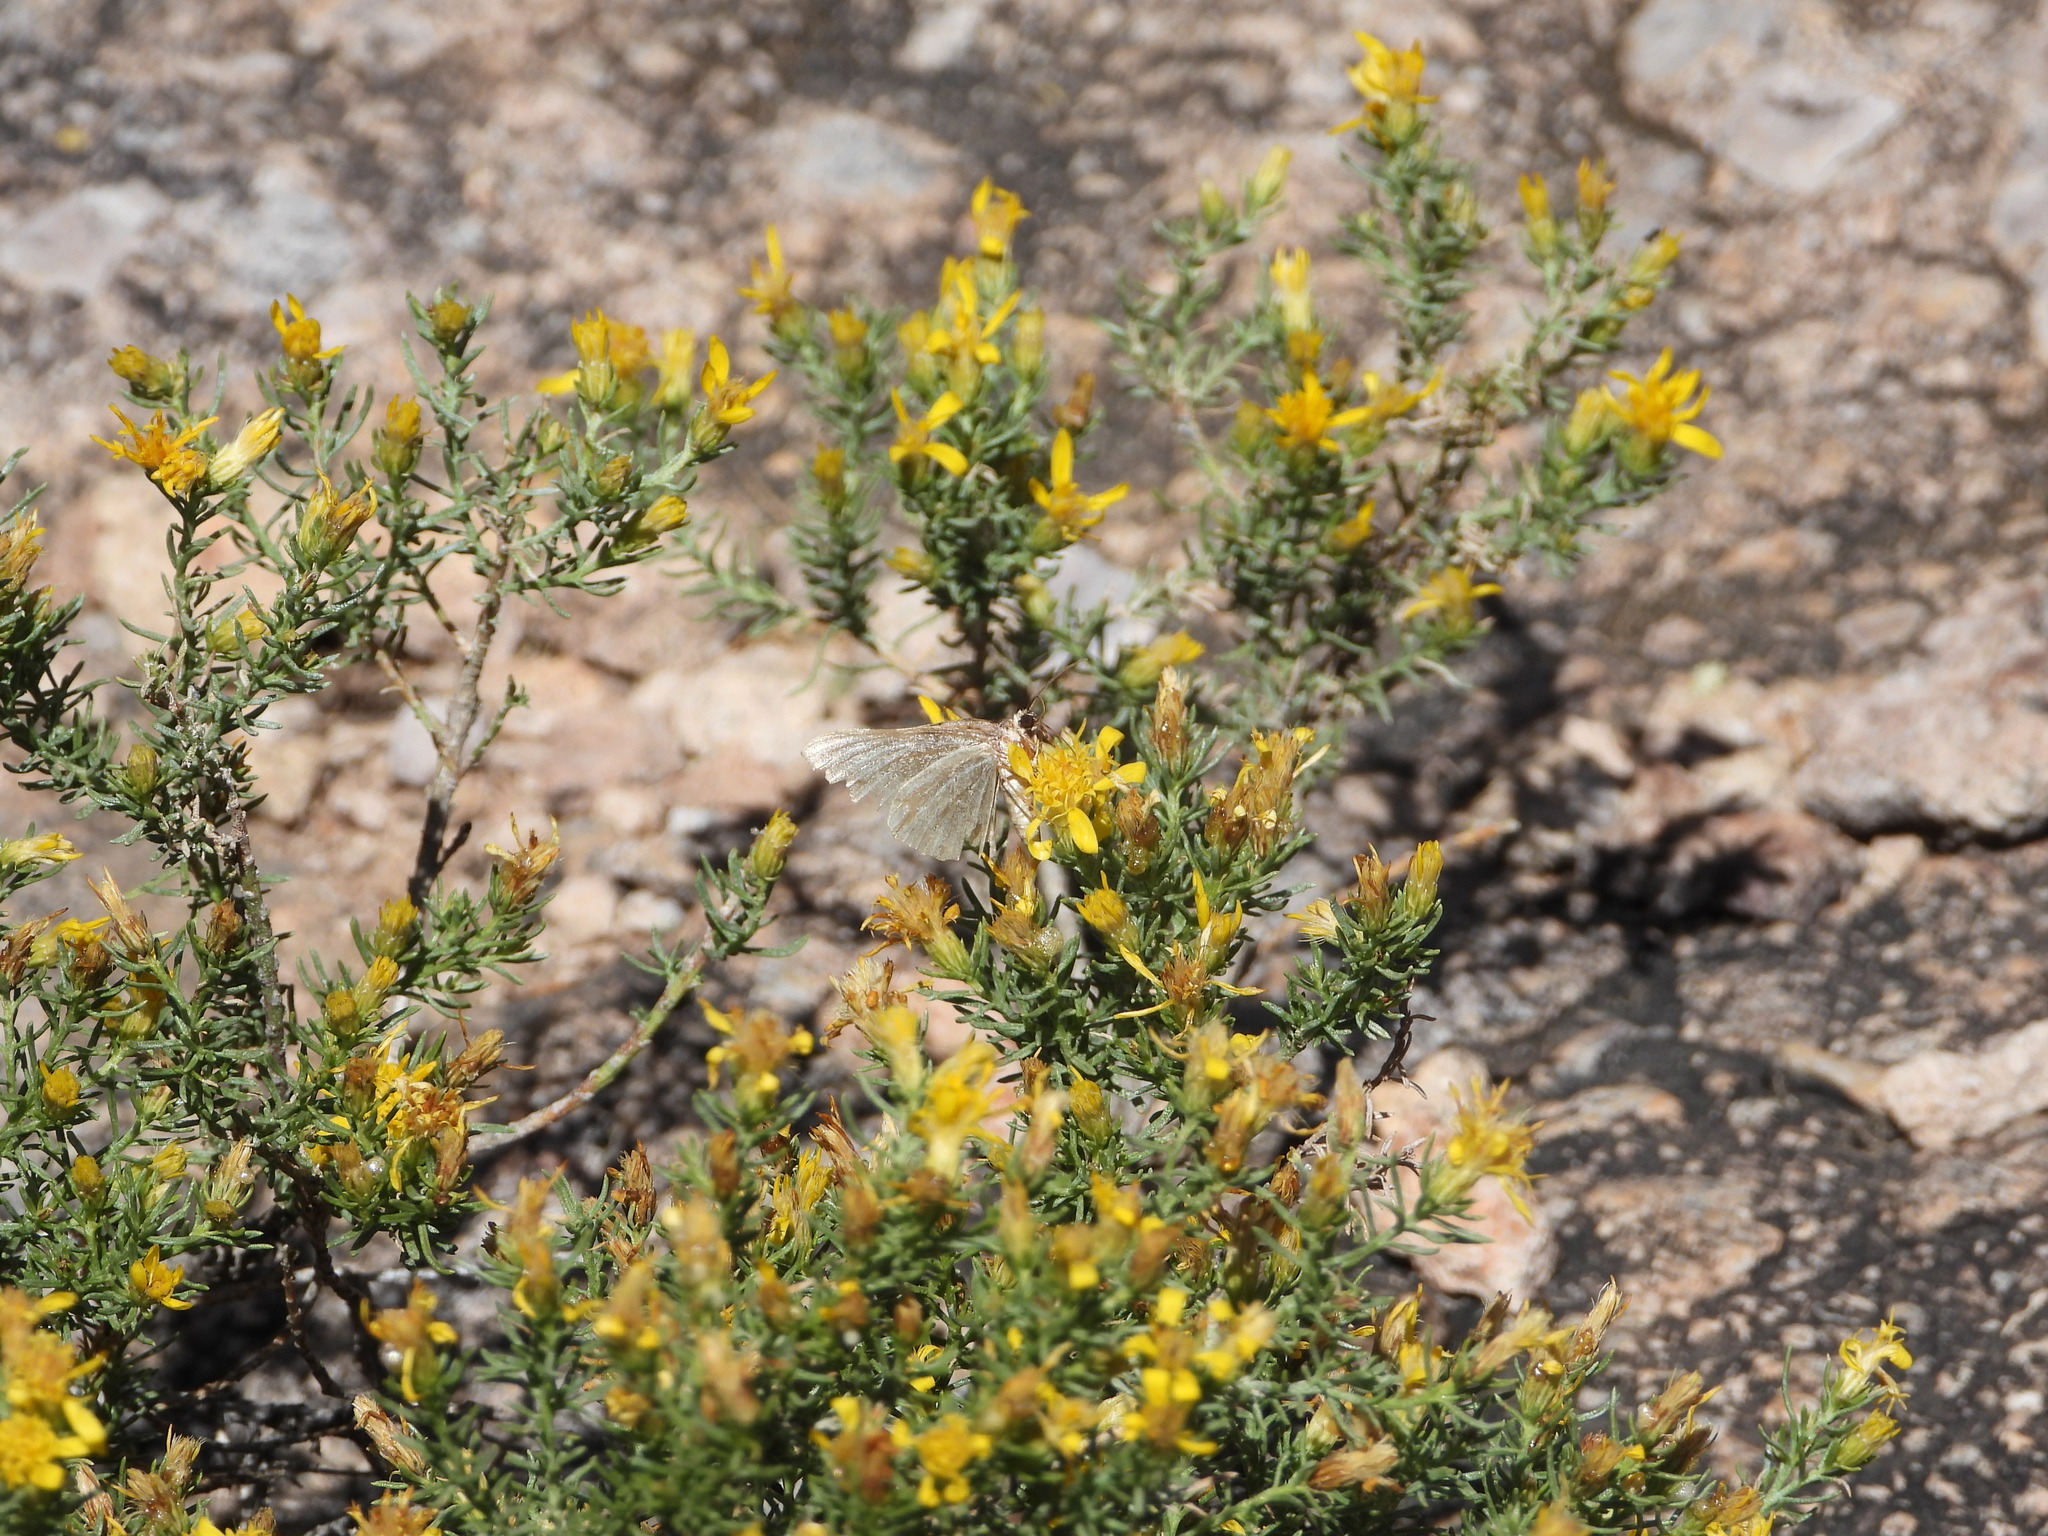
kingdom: Plantae
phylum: Tracheophyta
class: Magnoliopsida
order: Asterales
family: Asteraceae
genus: Ericameria
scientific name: Ericameria laricifolia
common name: Turpentine-bush
